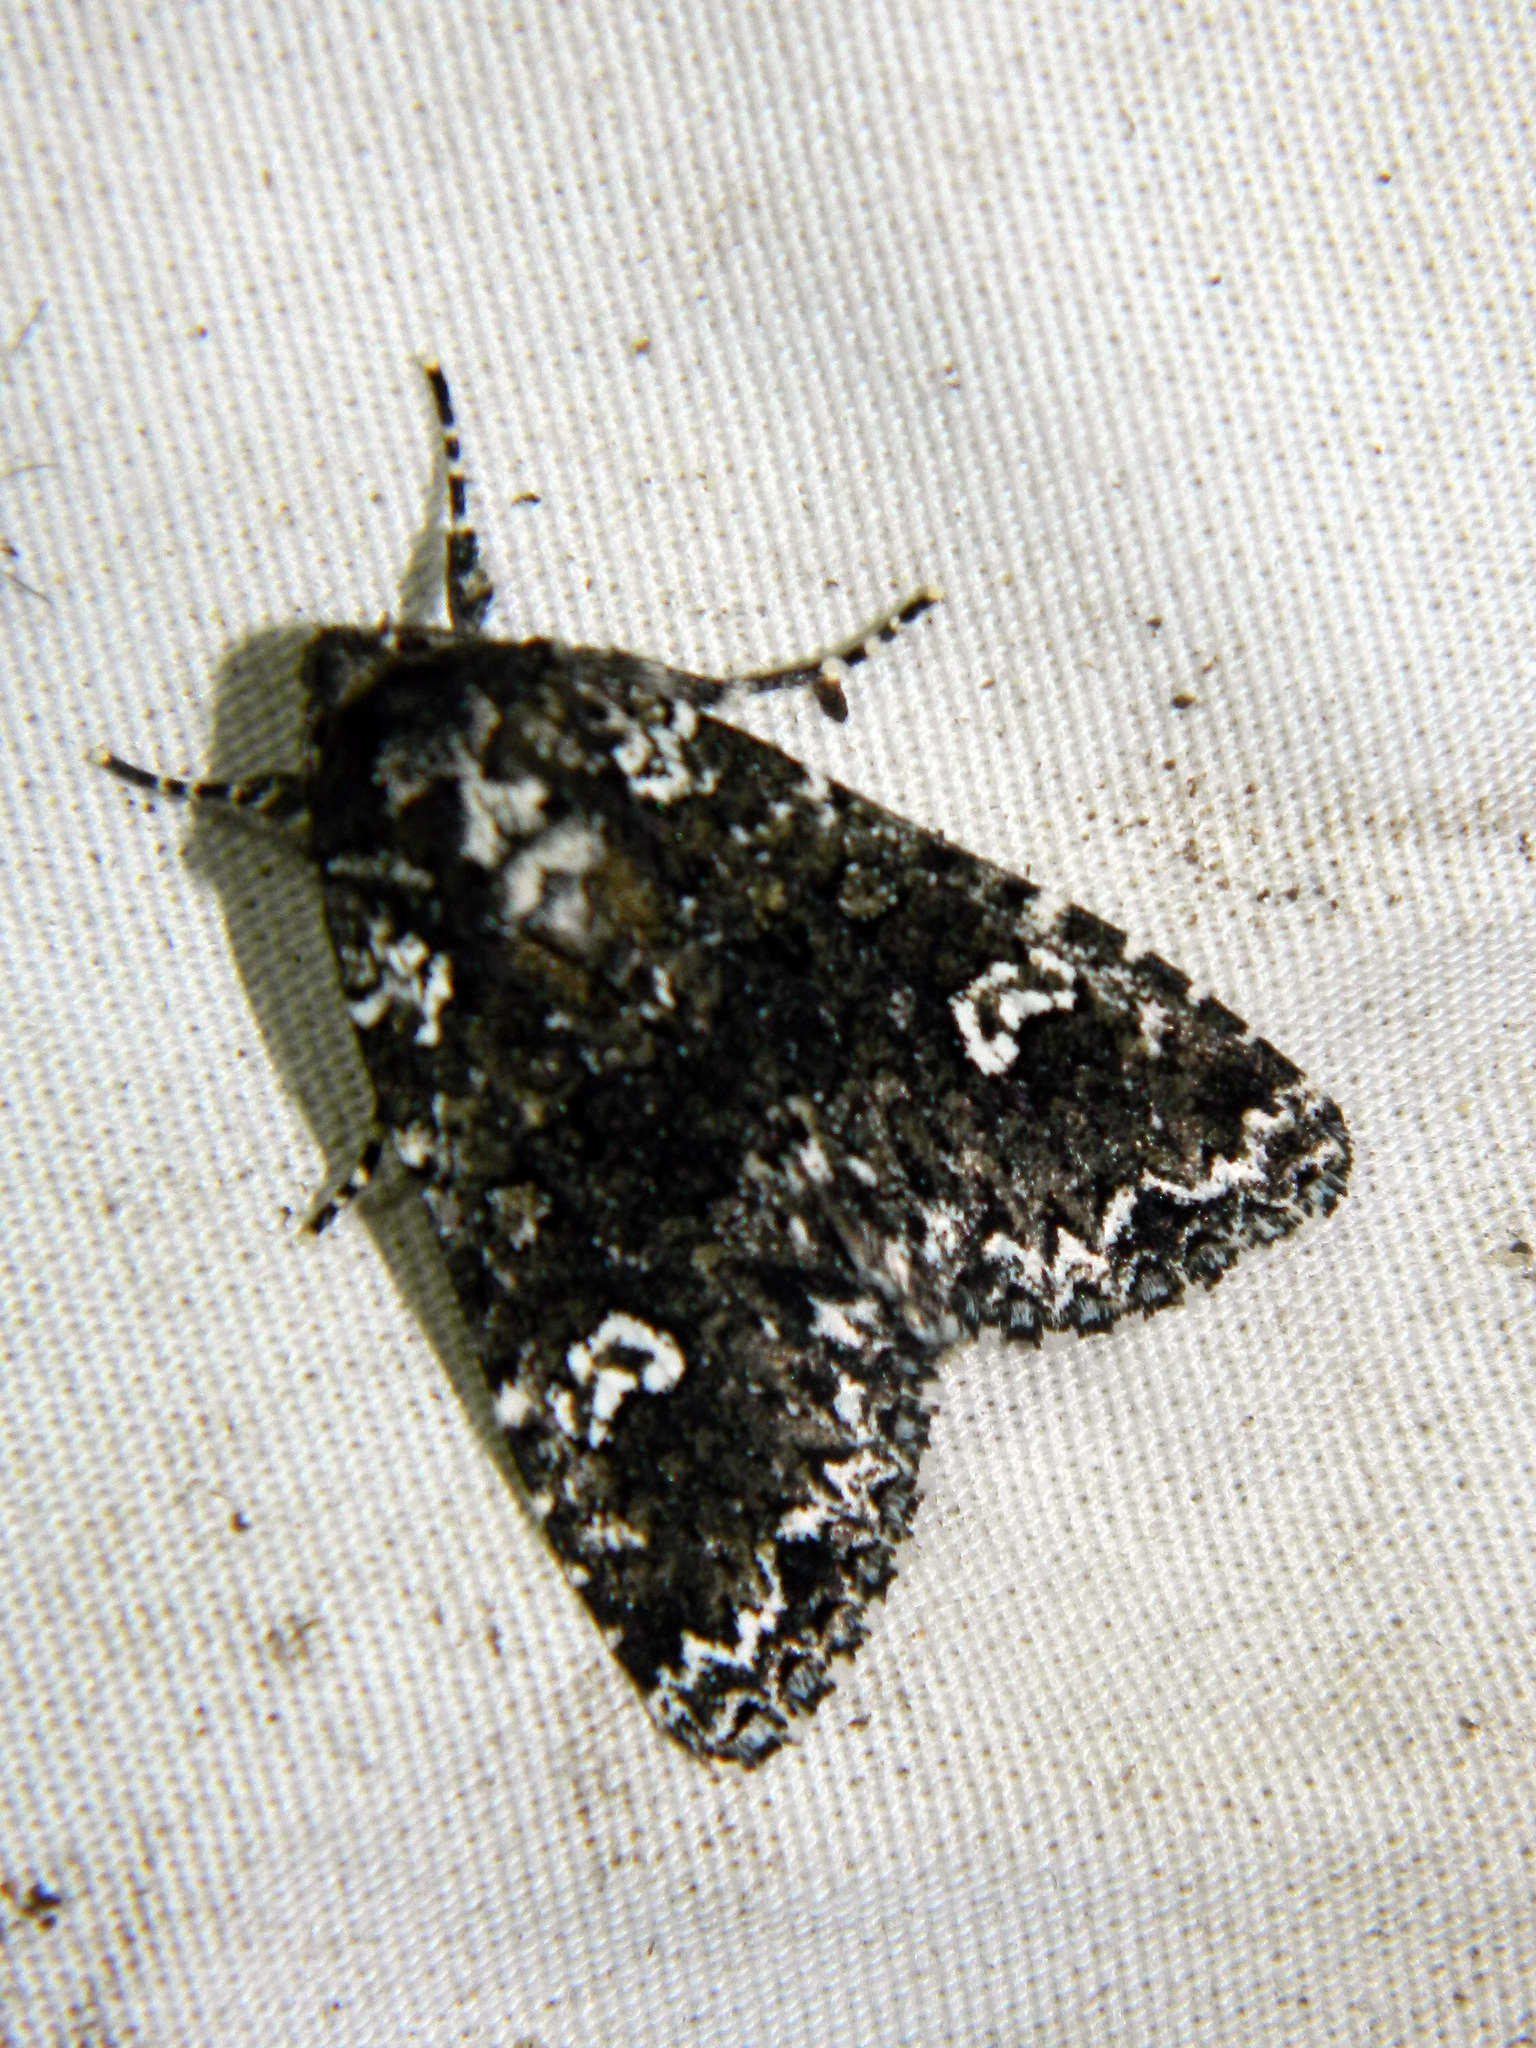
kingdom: Animalia
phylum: Arthropoda
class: Insecta
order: Lepidoptera
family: Noctuidae
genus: Melanchra
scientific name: Melanchra adjuncta
